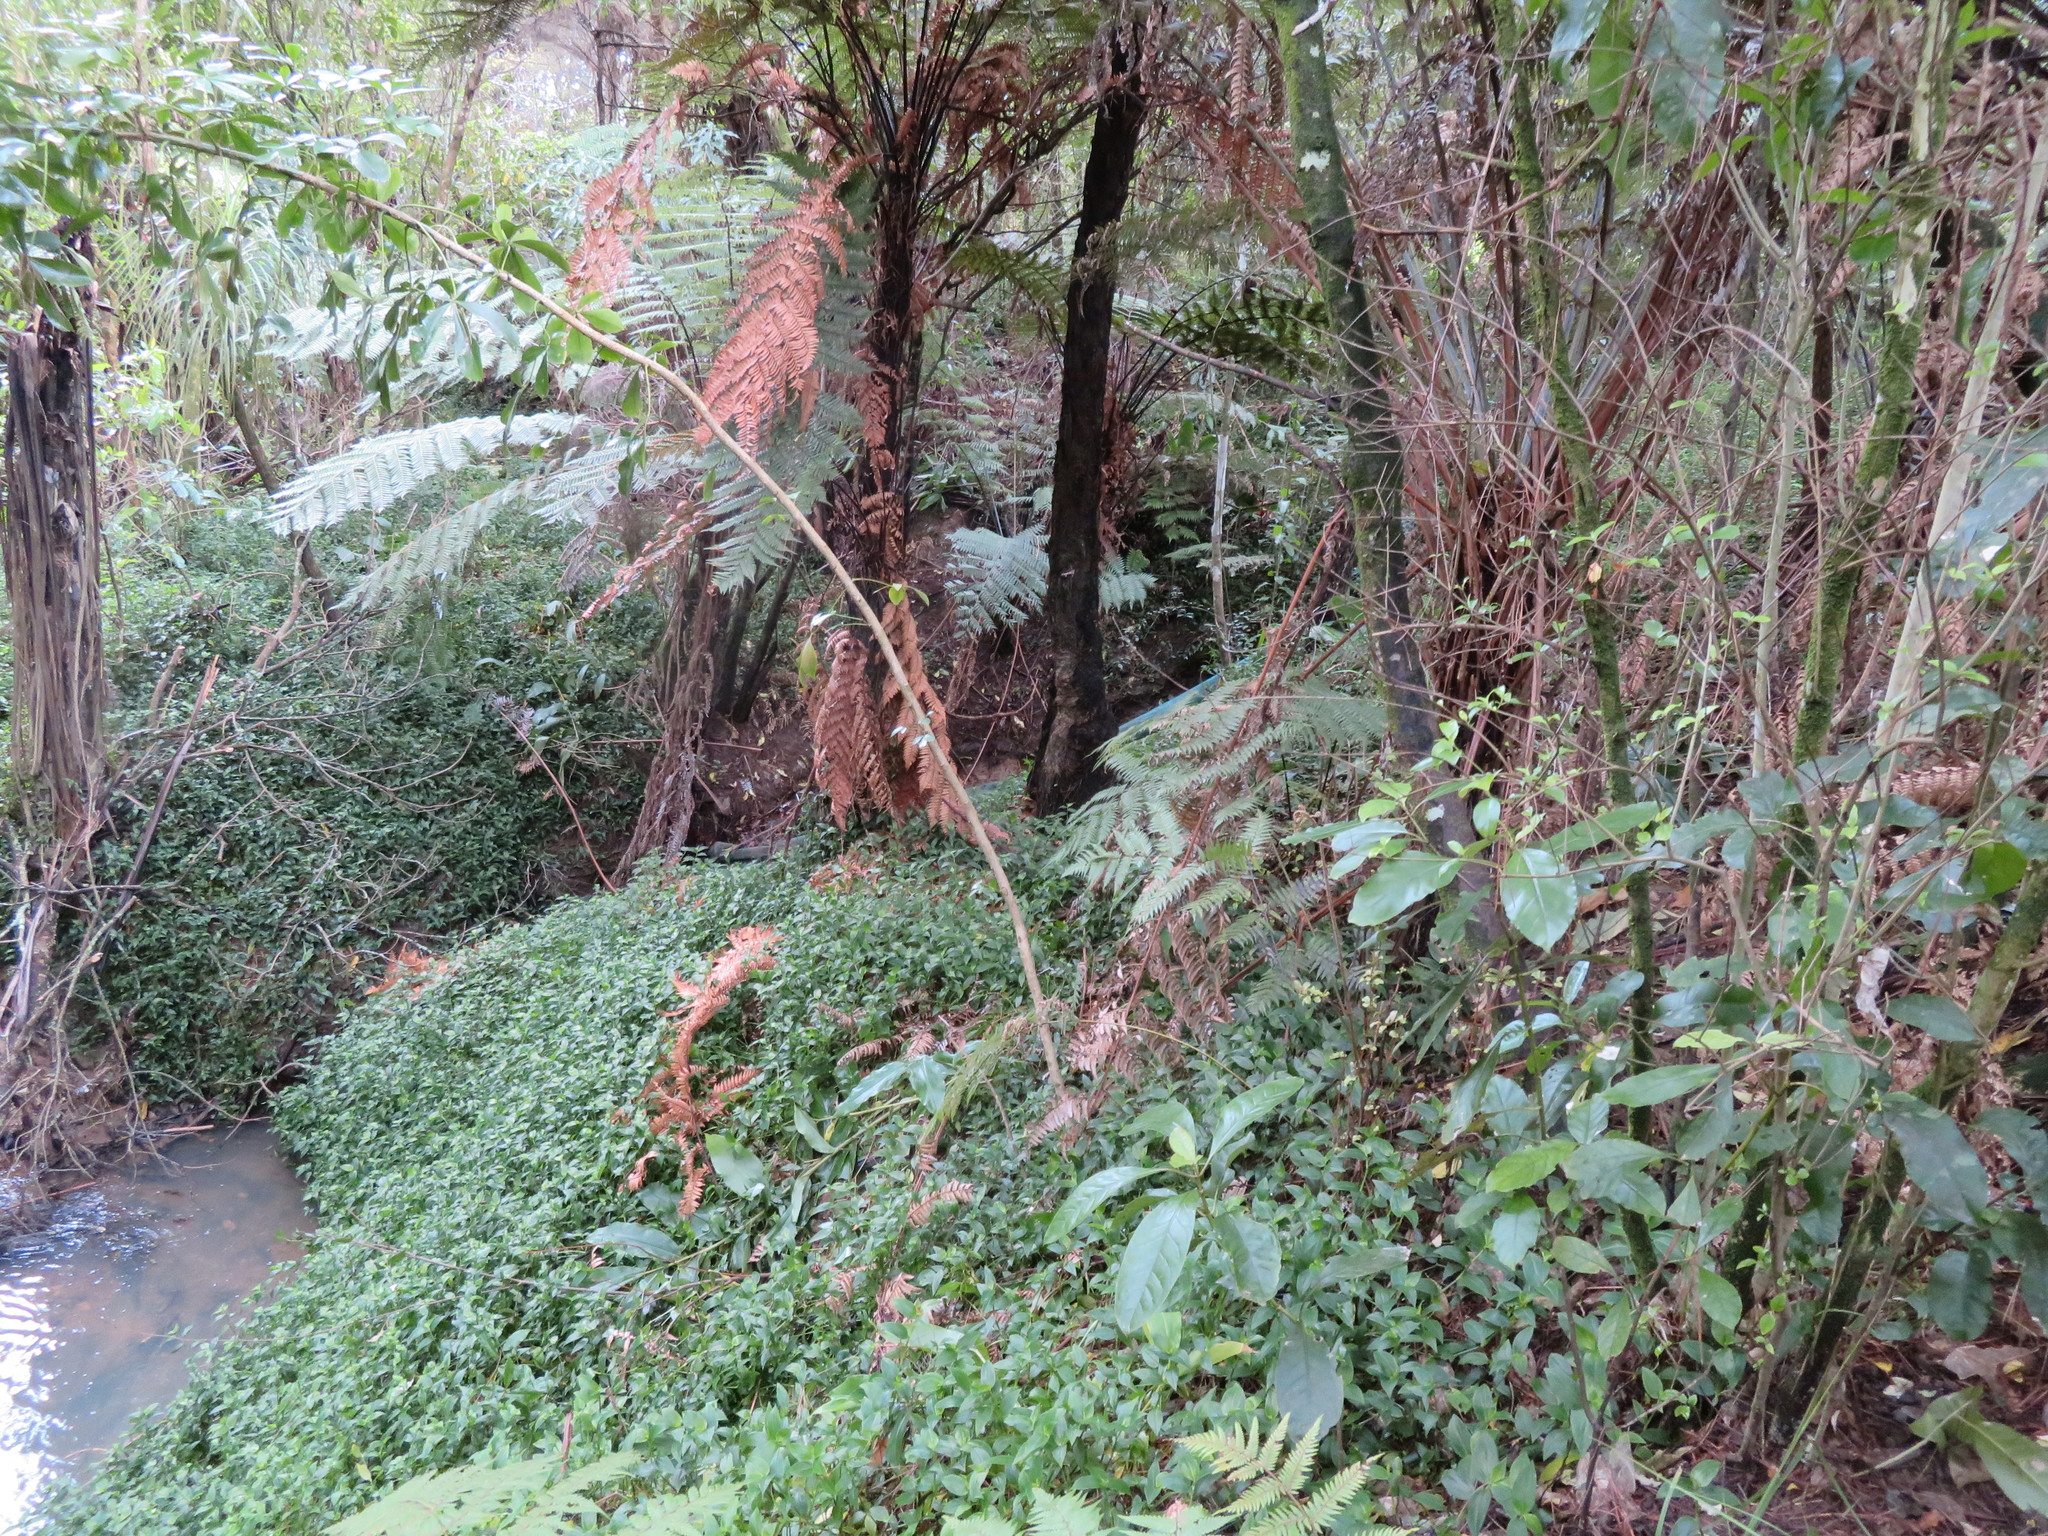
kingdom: Plantae
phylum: Tracheophyta
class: Magnoliopsida
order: Malpighiales
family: Violaceae
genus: Melicytus
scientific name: Melicytus ramiflorus
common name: Mahoe
